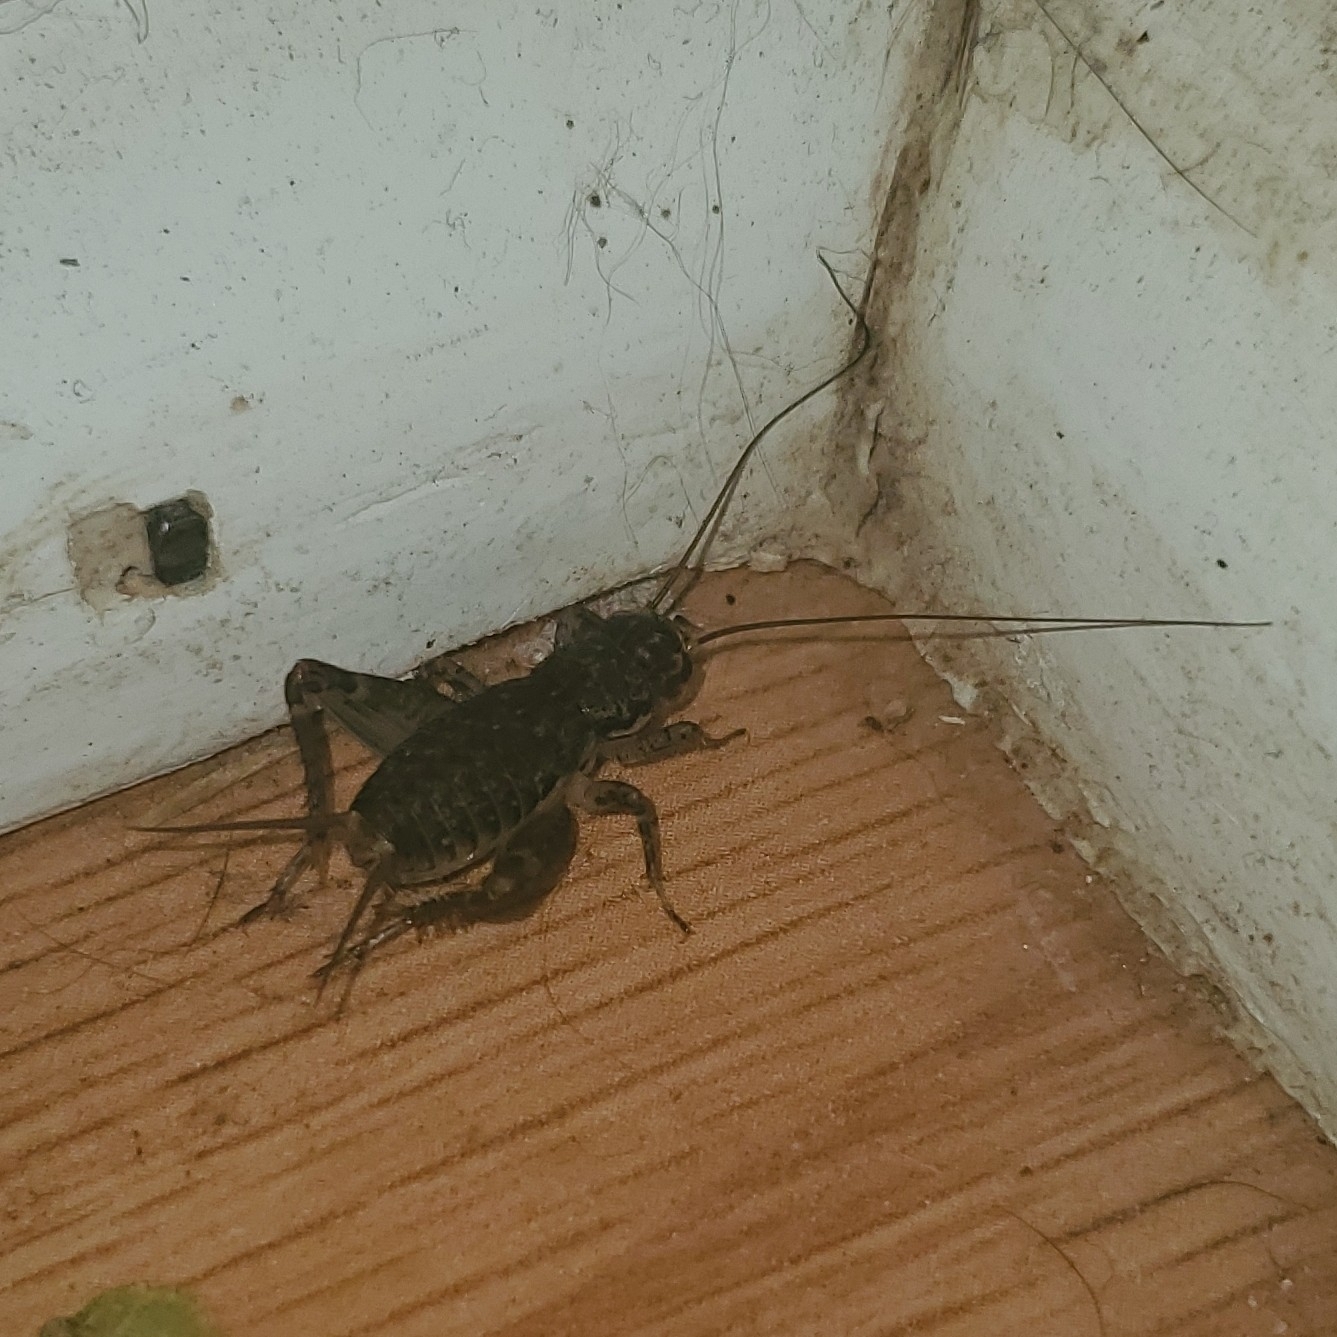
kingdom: Animalia
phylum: Arthropoda
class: Insecta
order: Orthoptera
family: Gryllidae
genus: Velarifictorus
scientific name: Velarifictorus micado
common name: Japanese burrowing cricket
